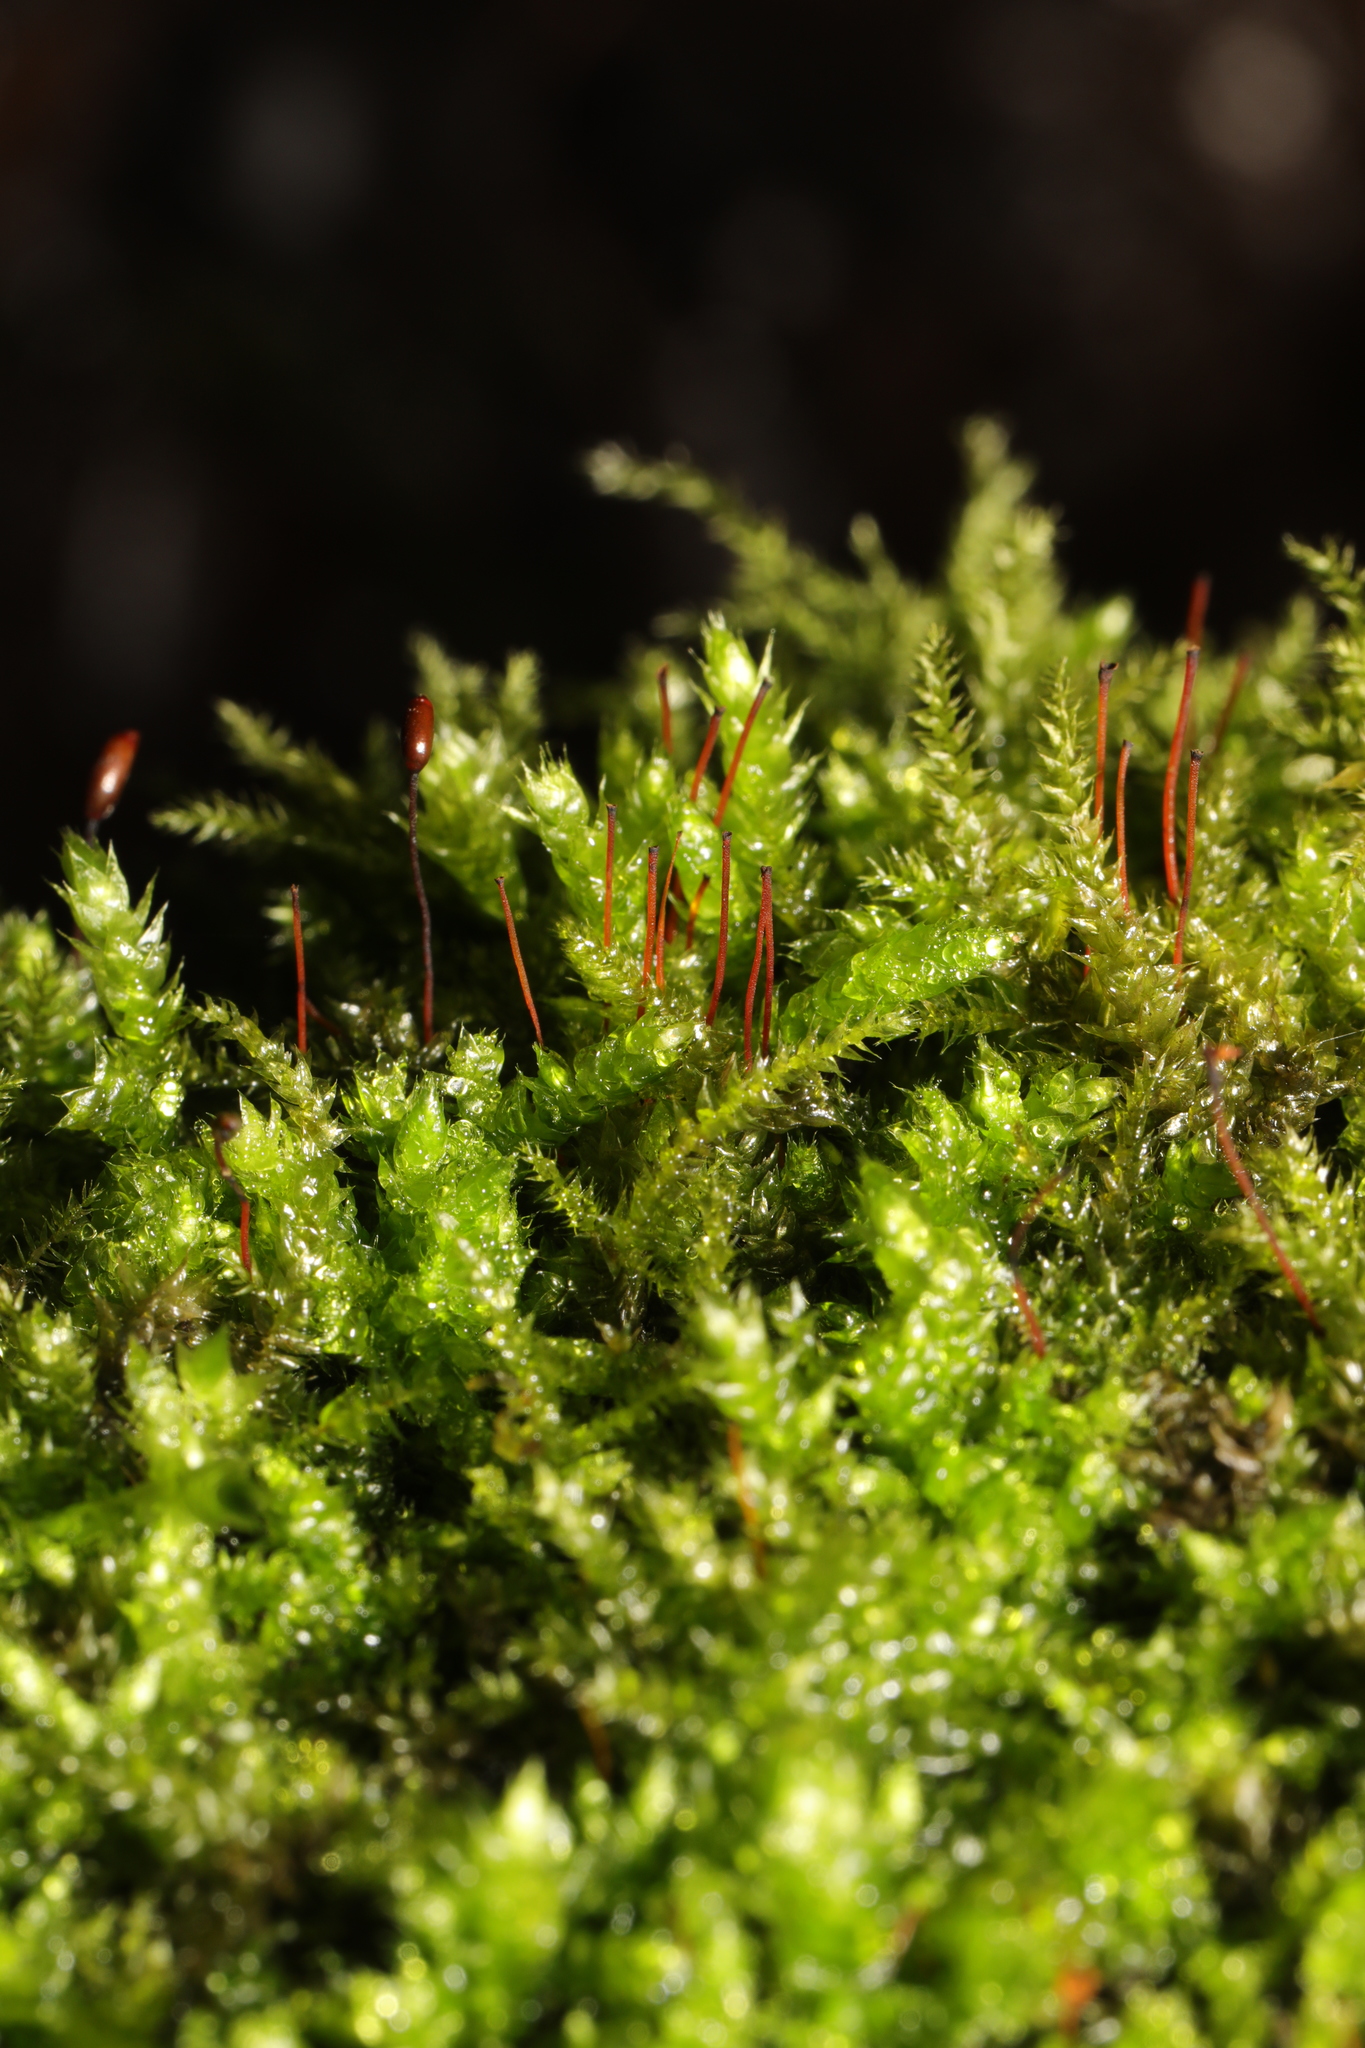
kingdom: Plantae
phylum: Bryophyta
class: Bryopsida
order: Hypnales
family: Brachytheciaceae
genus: Brachythecium
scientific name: Brachythecium rutabulum
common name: Rough-stalked feather-moss
